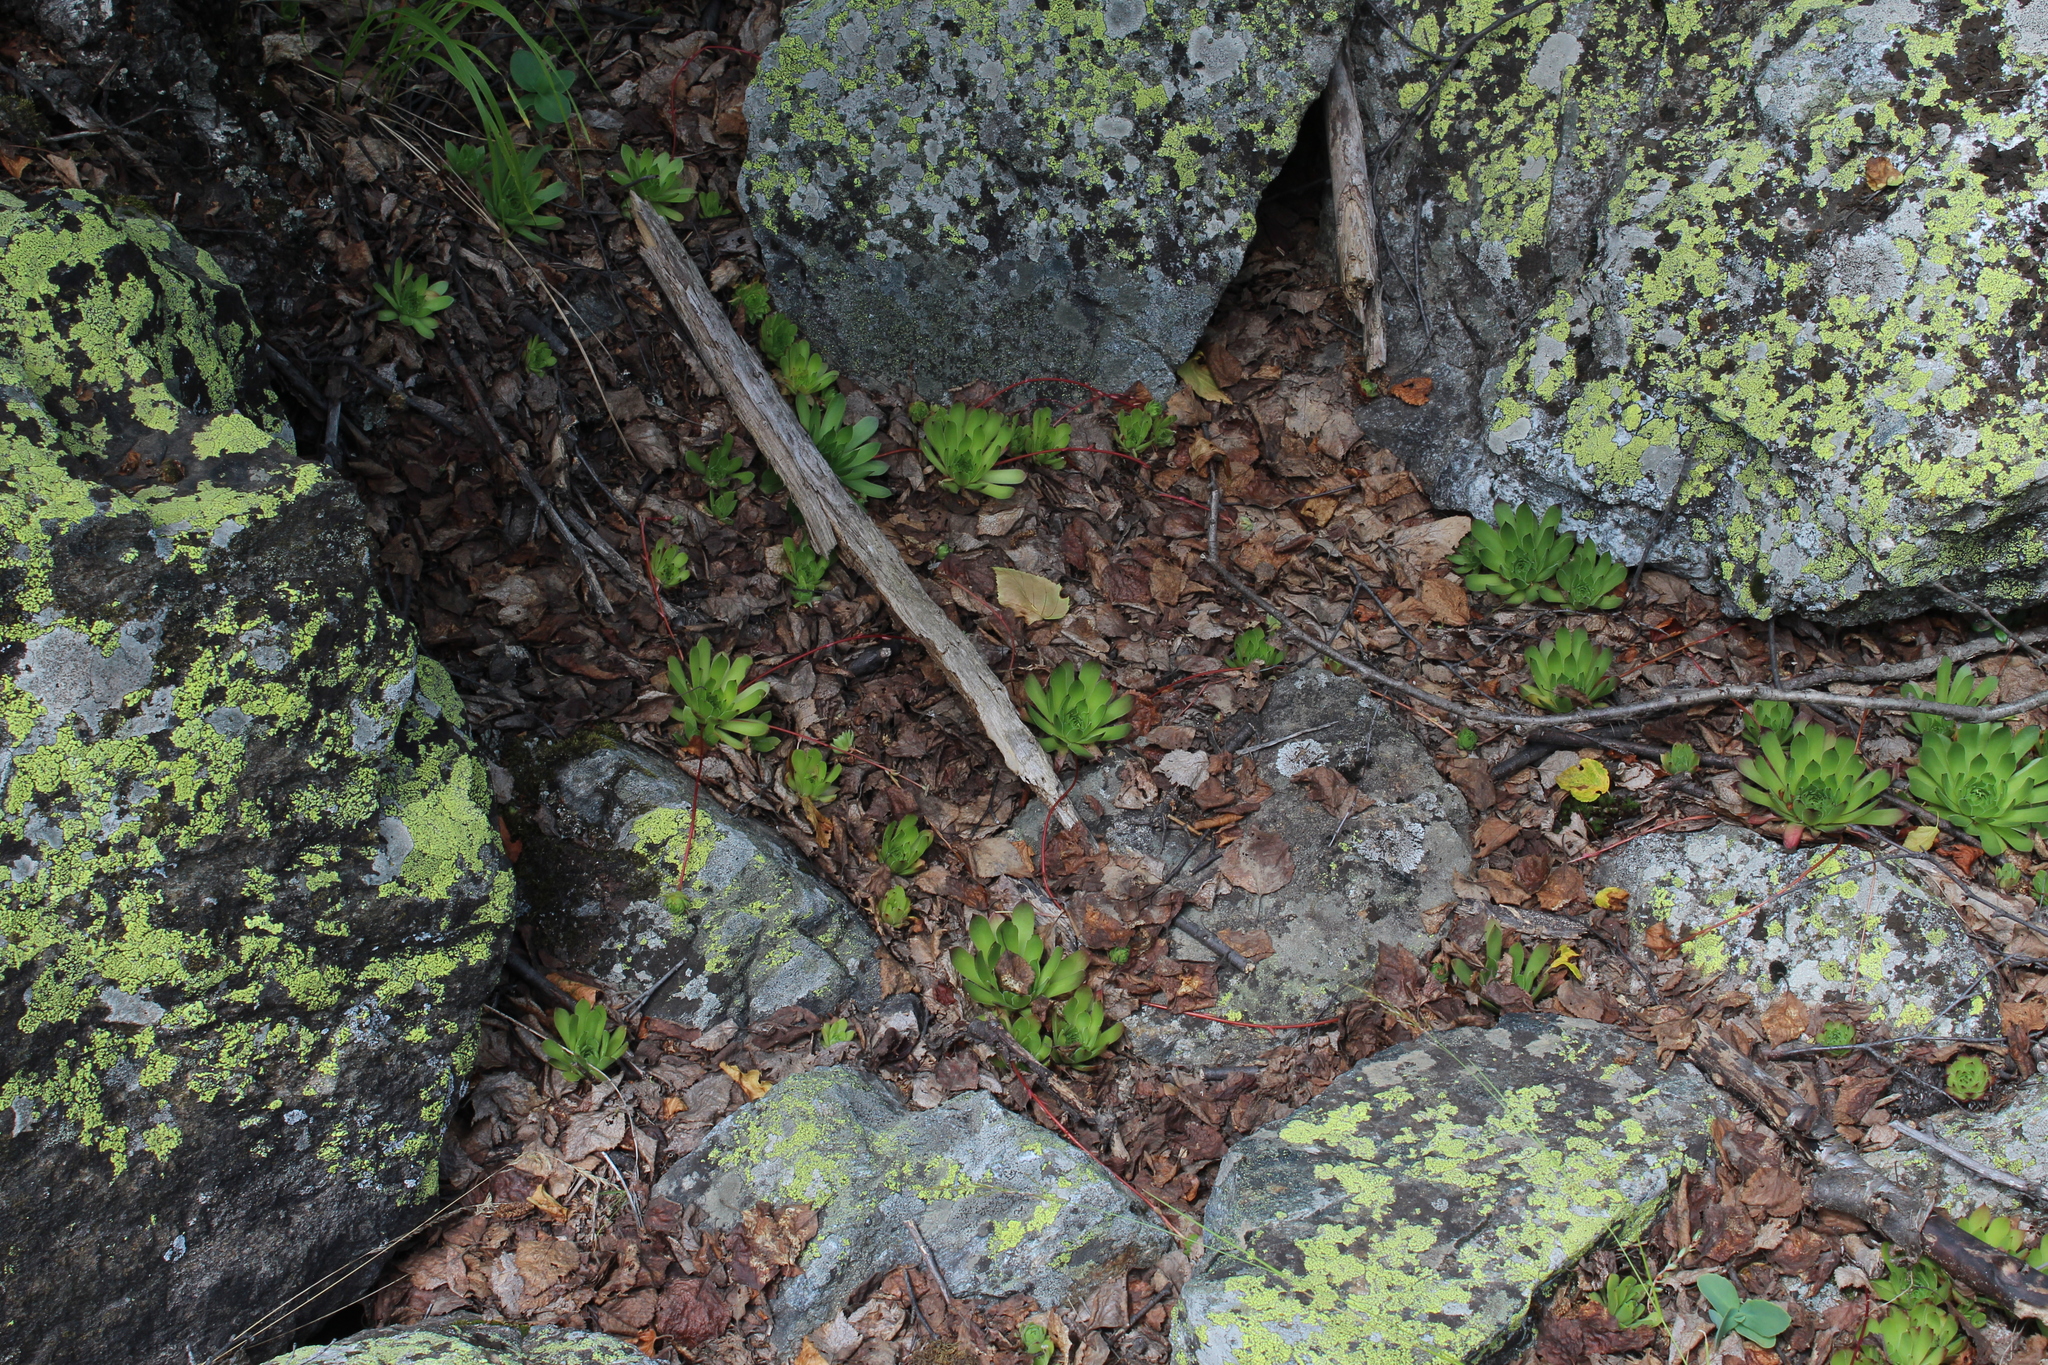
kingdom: Plantae
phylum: Tracheophyta
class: Magnoliopsida
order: Saxifragales
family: Crassulaceae
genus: Sempervivum
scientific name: Sempervivum caucasicum
